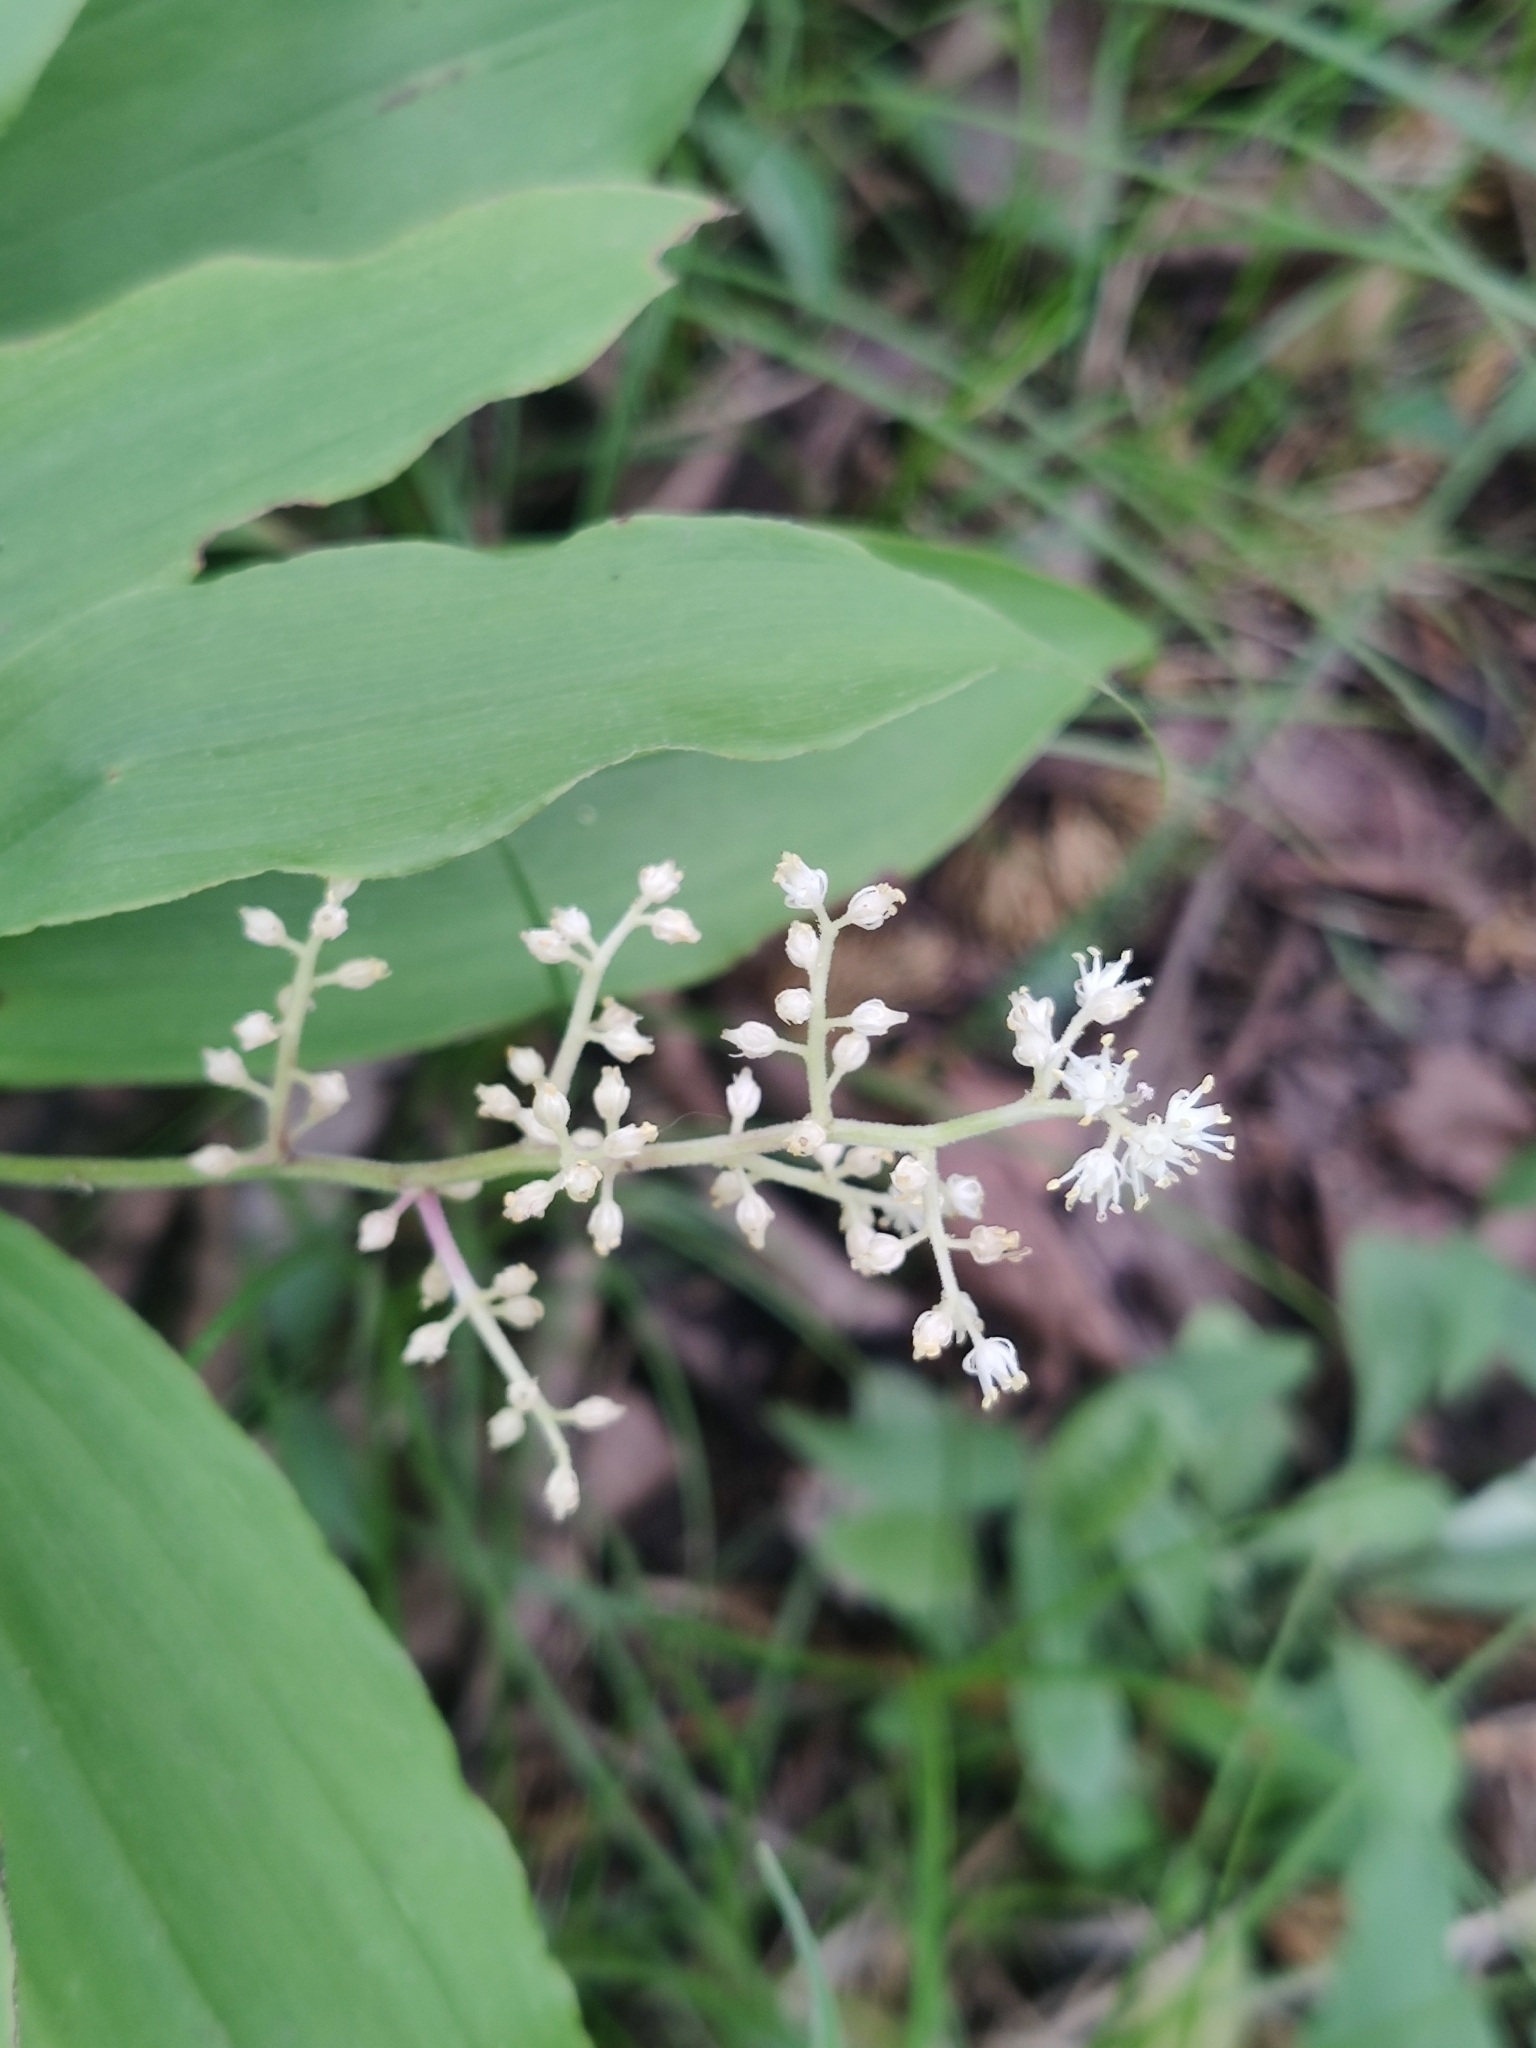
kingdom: Plantae
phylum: Tracheophyta
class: Liliopsida
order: Asparagales
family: Asparagaceae
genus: Maianthemum
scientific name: Maianthemum racemosum
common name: False spikenard
